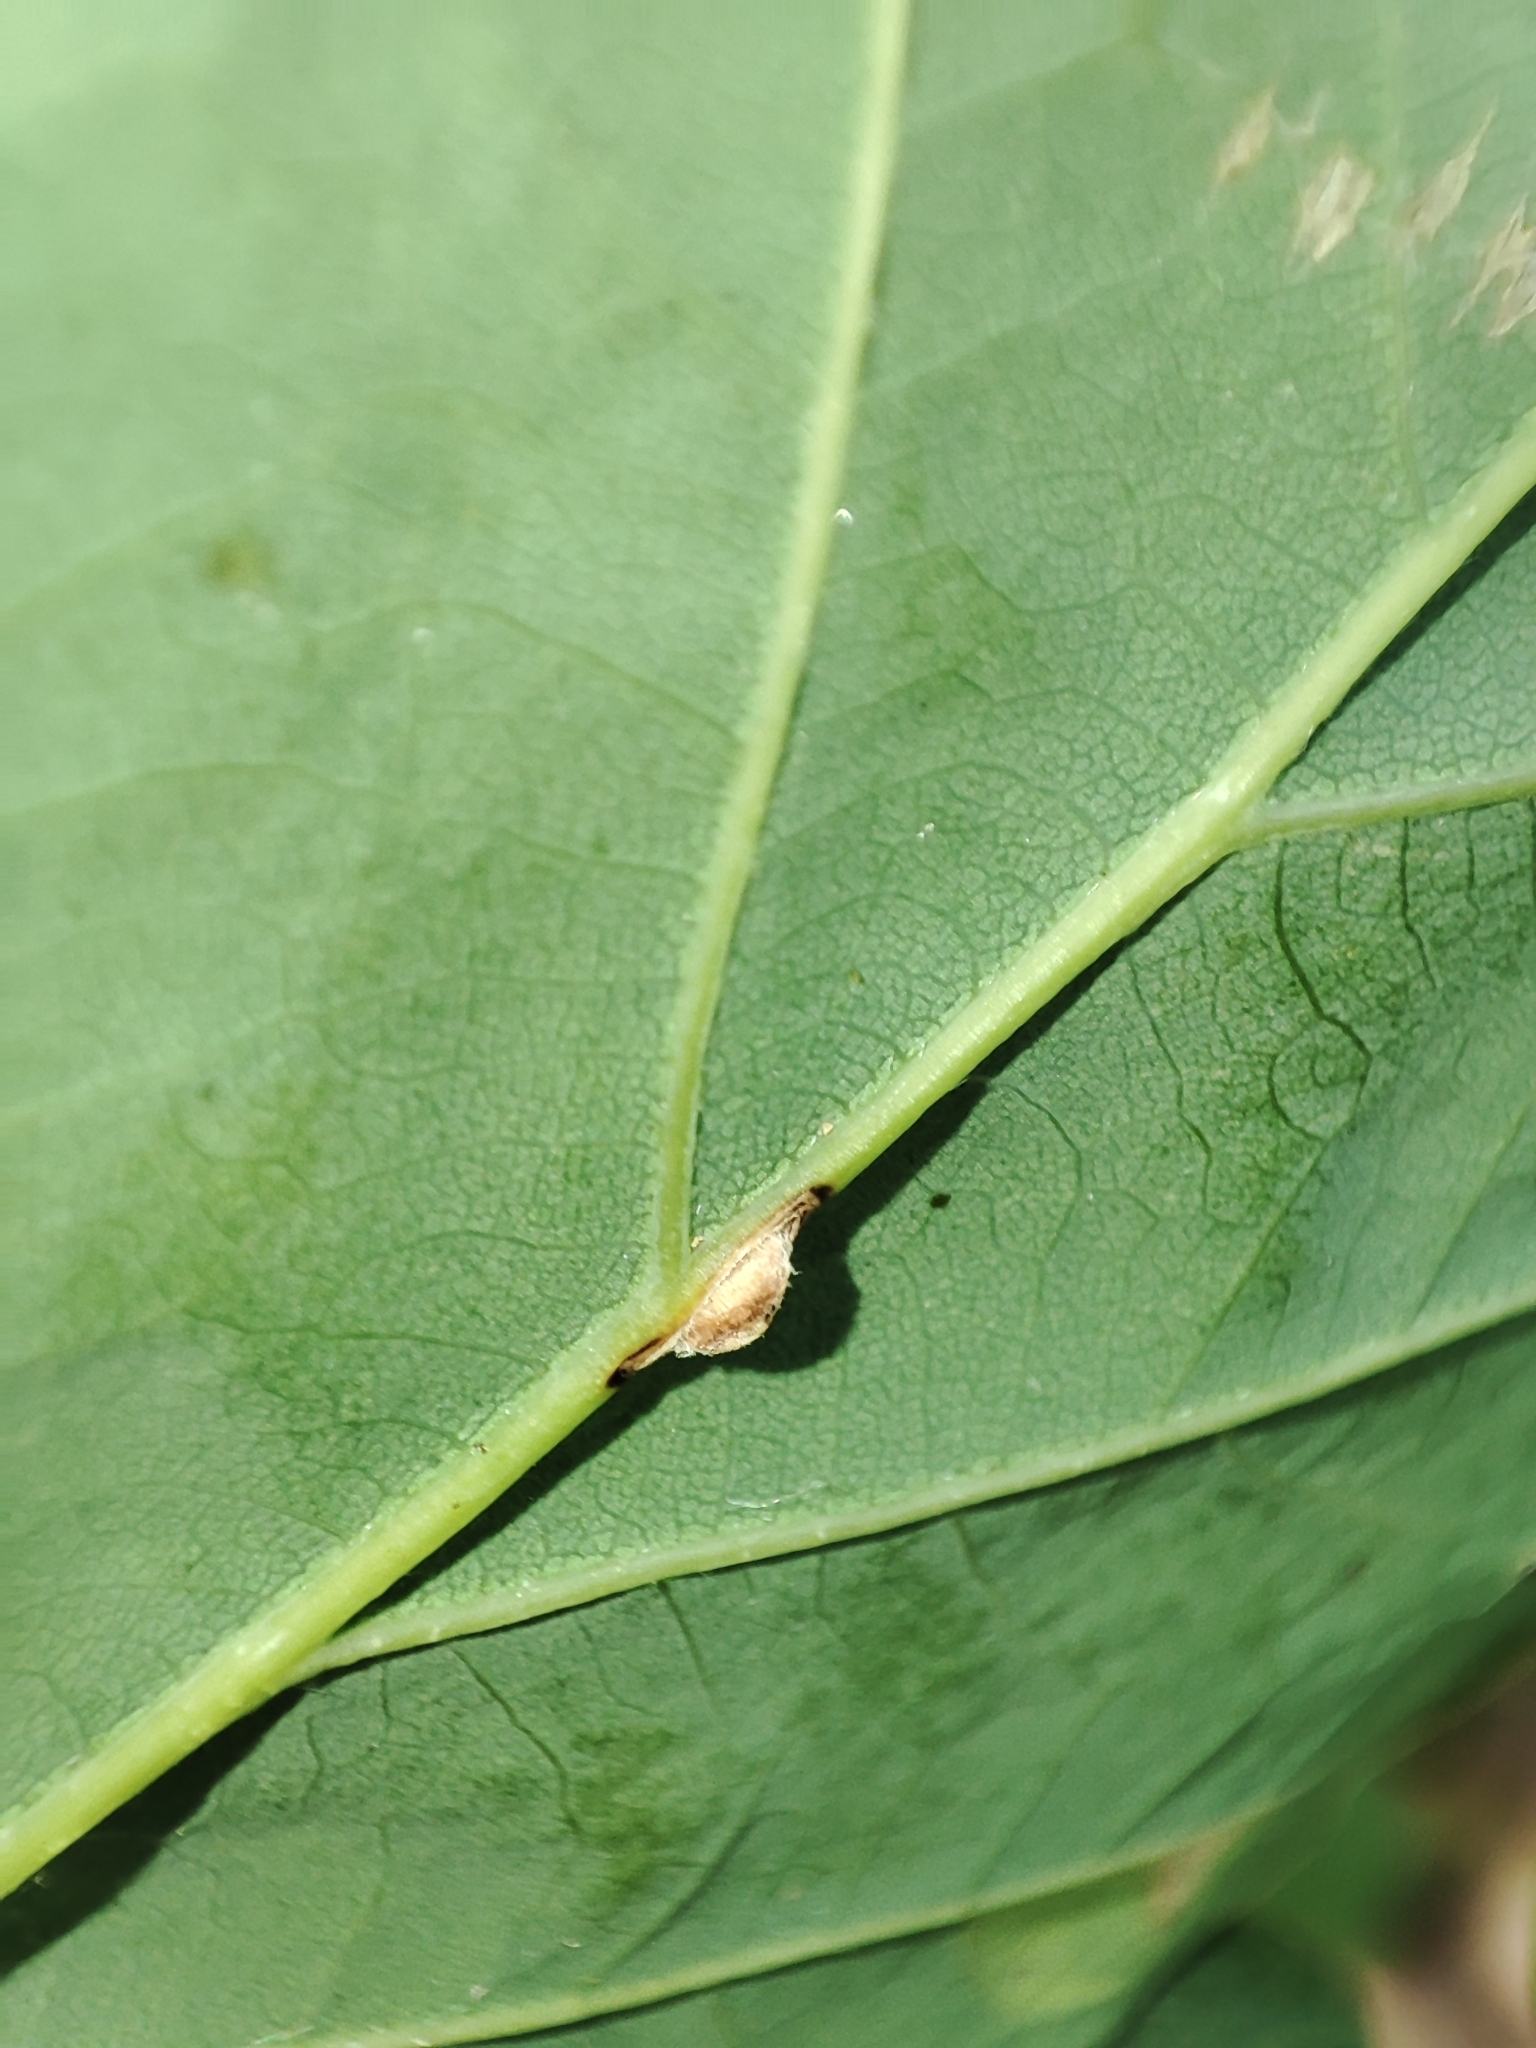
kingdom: Plantae
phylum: Tracheophyta
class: Magnoliopsida
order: Fagales
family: Fagaceae
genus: Quercus
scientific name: Quercus robur
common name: Pedunculate oak
